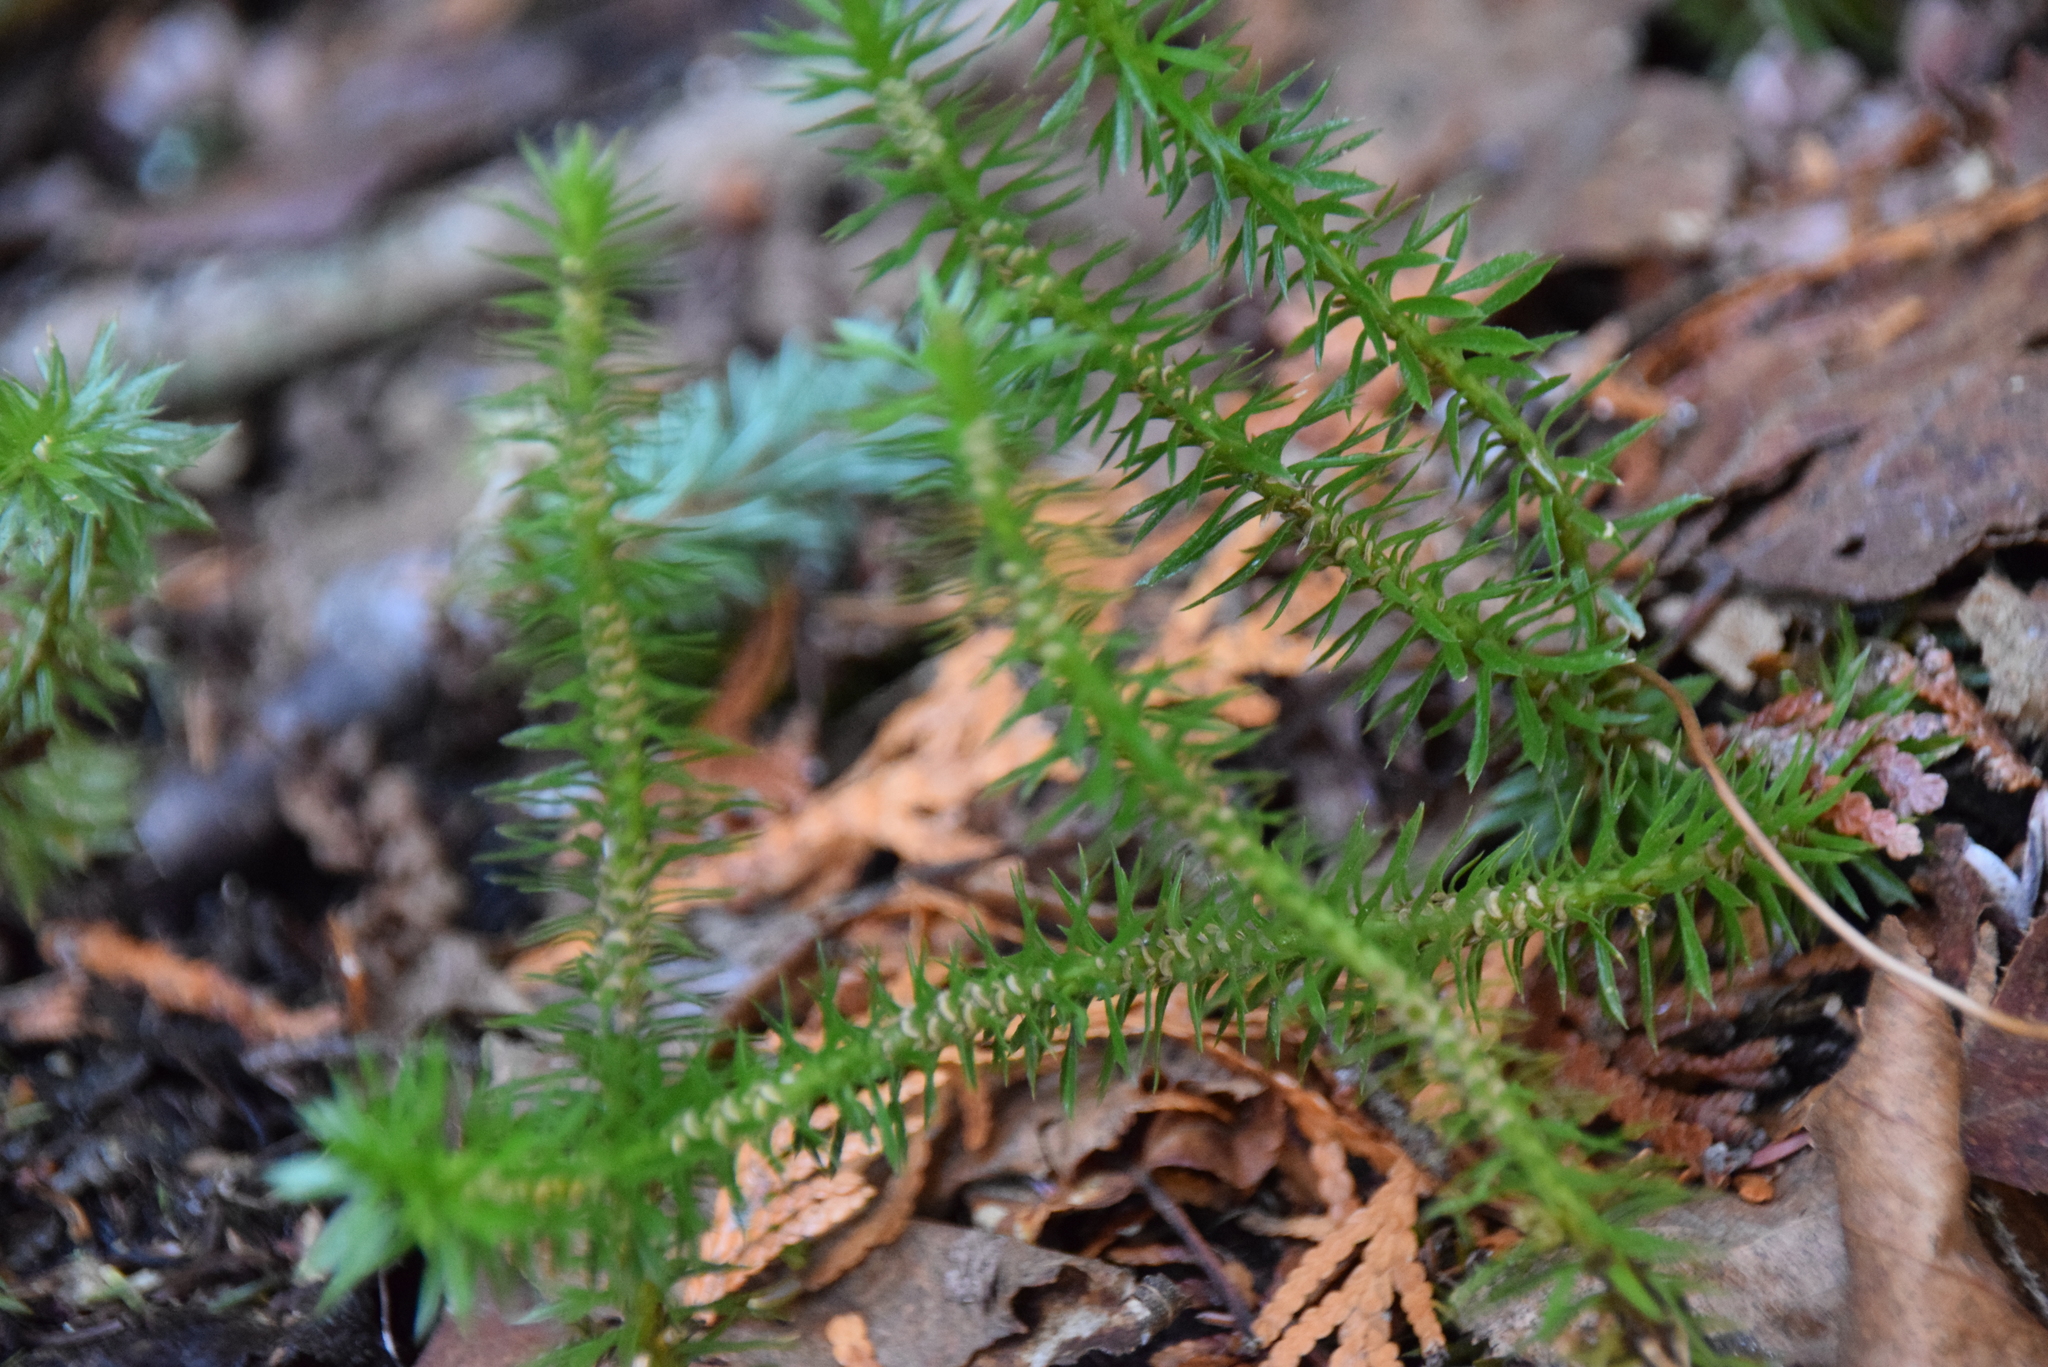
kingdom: Plantae
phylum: Tracheophyta
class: Lycopodiopsida
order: Lycopodiales
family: Lycopodiaceae
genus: Huperzia
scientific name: Huperzia lucidula
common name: Shining clubmoss
